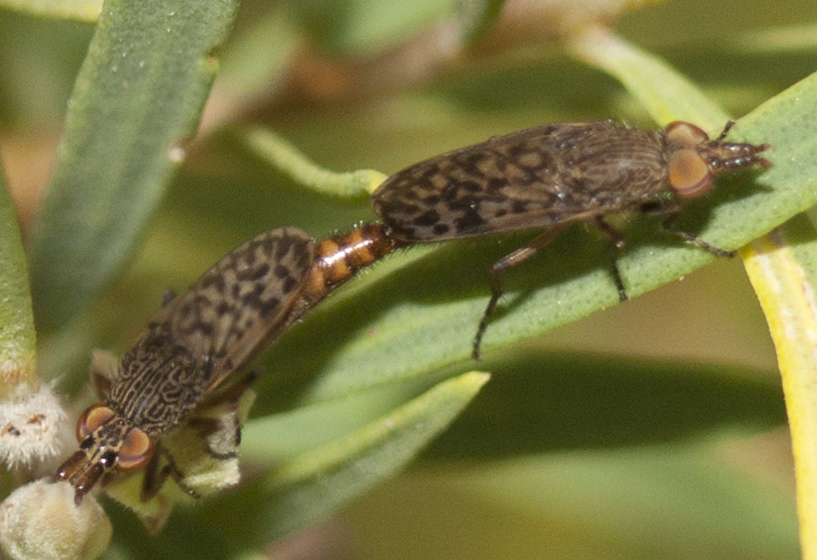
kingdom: Animalia
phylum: Arthropoda
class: Insecta
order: Diptera
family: Therevidae
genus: Neodialineura
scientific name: Neodialineura striatithorax
